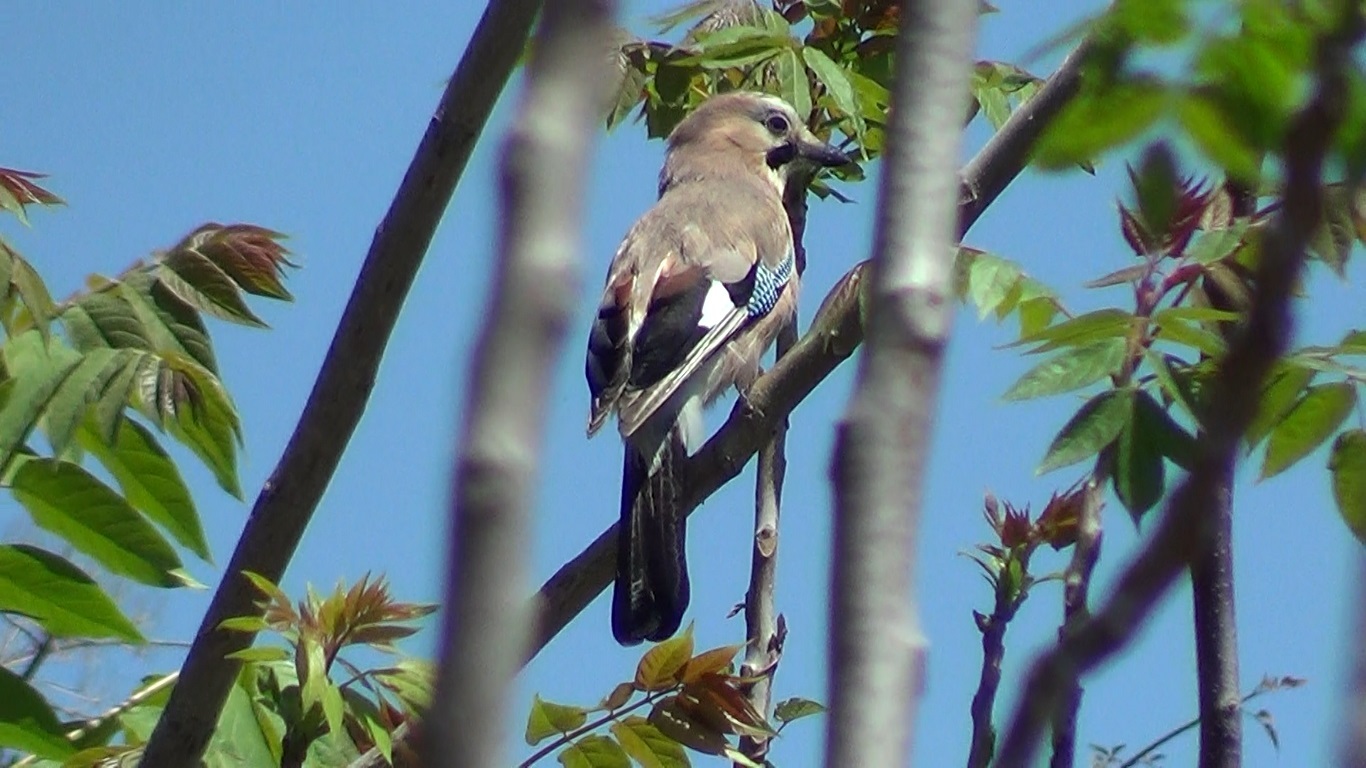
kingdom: Animalia
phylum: Chordata
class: Aves
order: Passeriformes
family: Corvidae
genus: Garrulus
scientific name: Garrulus glandarius
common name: Eurasian jay
